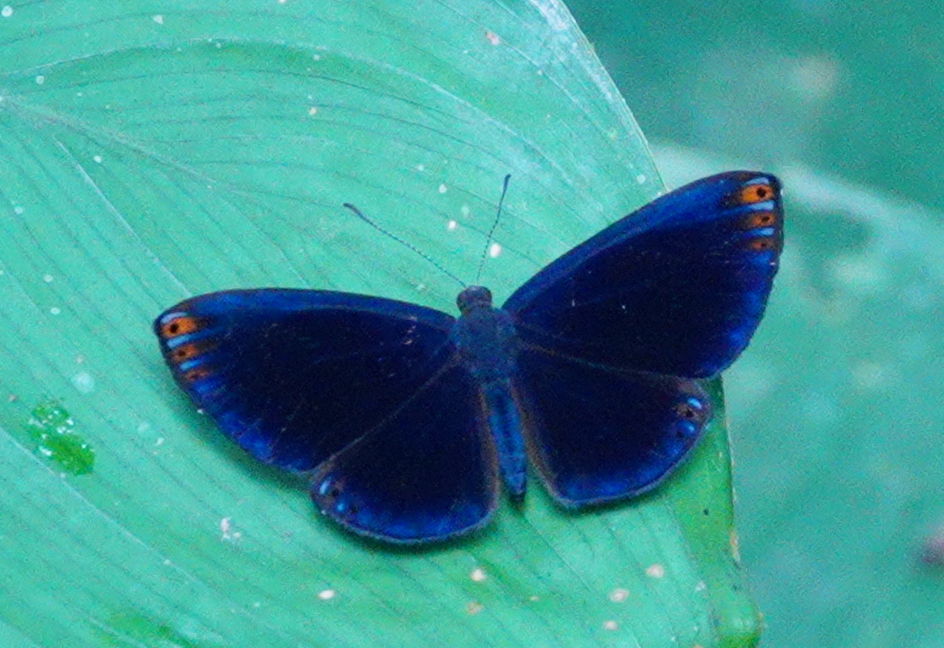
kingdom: Animalia
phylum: Arthropoda
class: Insecta
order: Lepidoptera
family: Riodinidae
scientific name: Riodinidae
